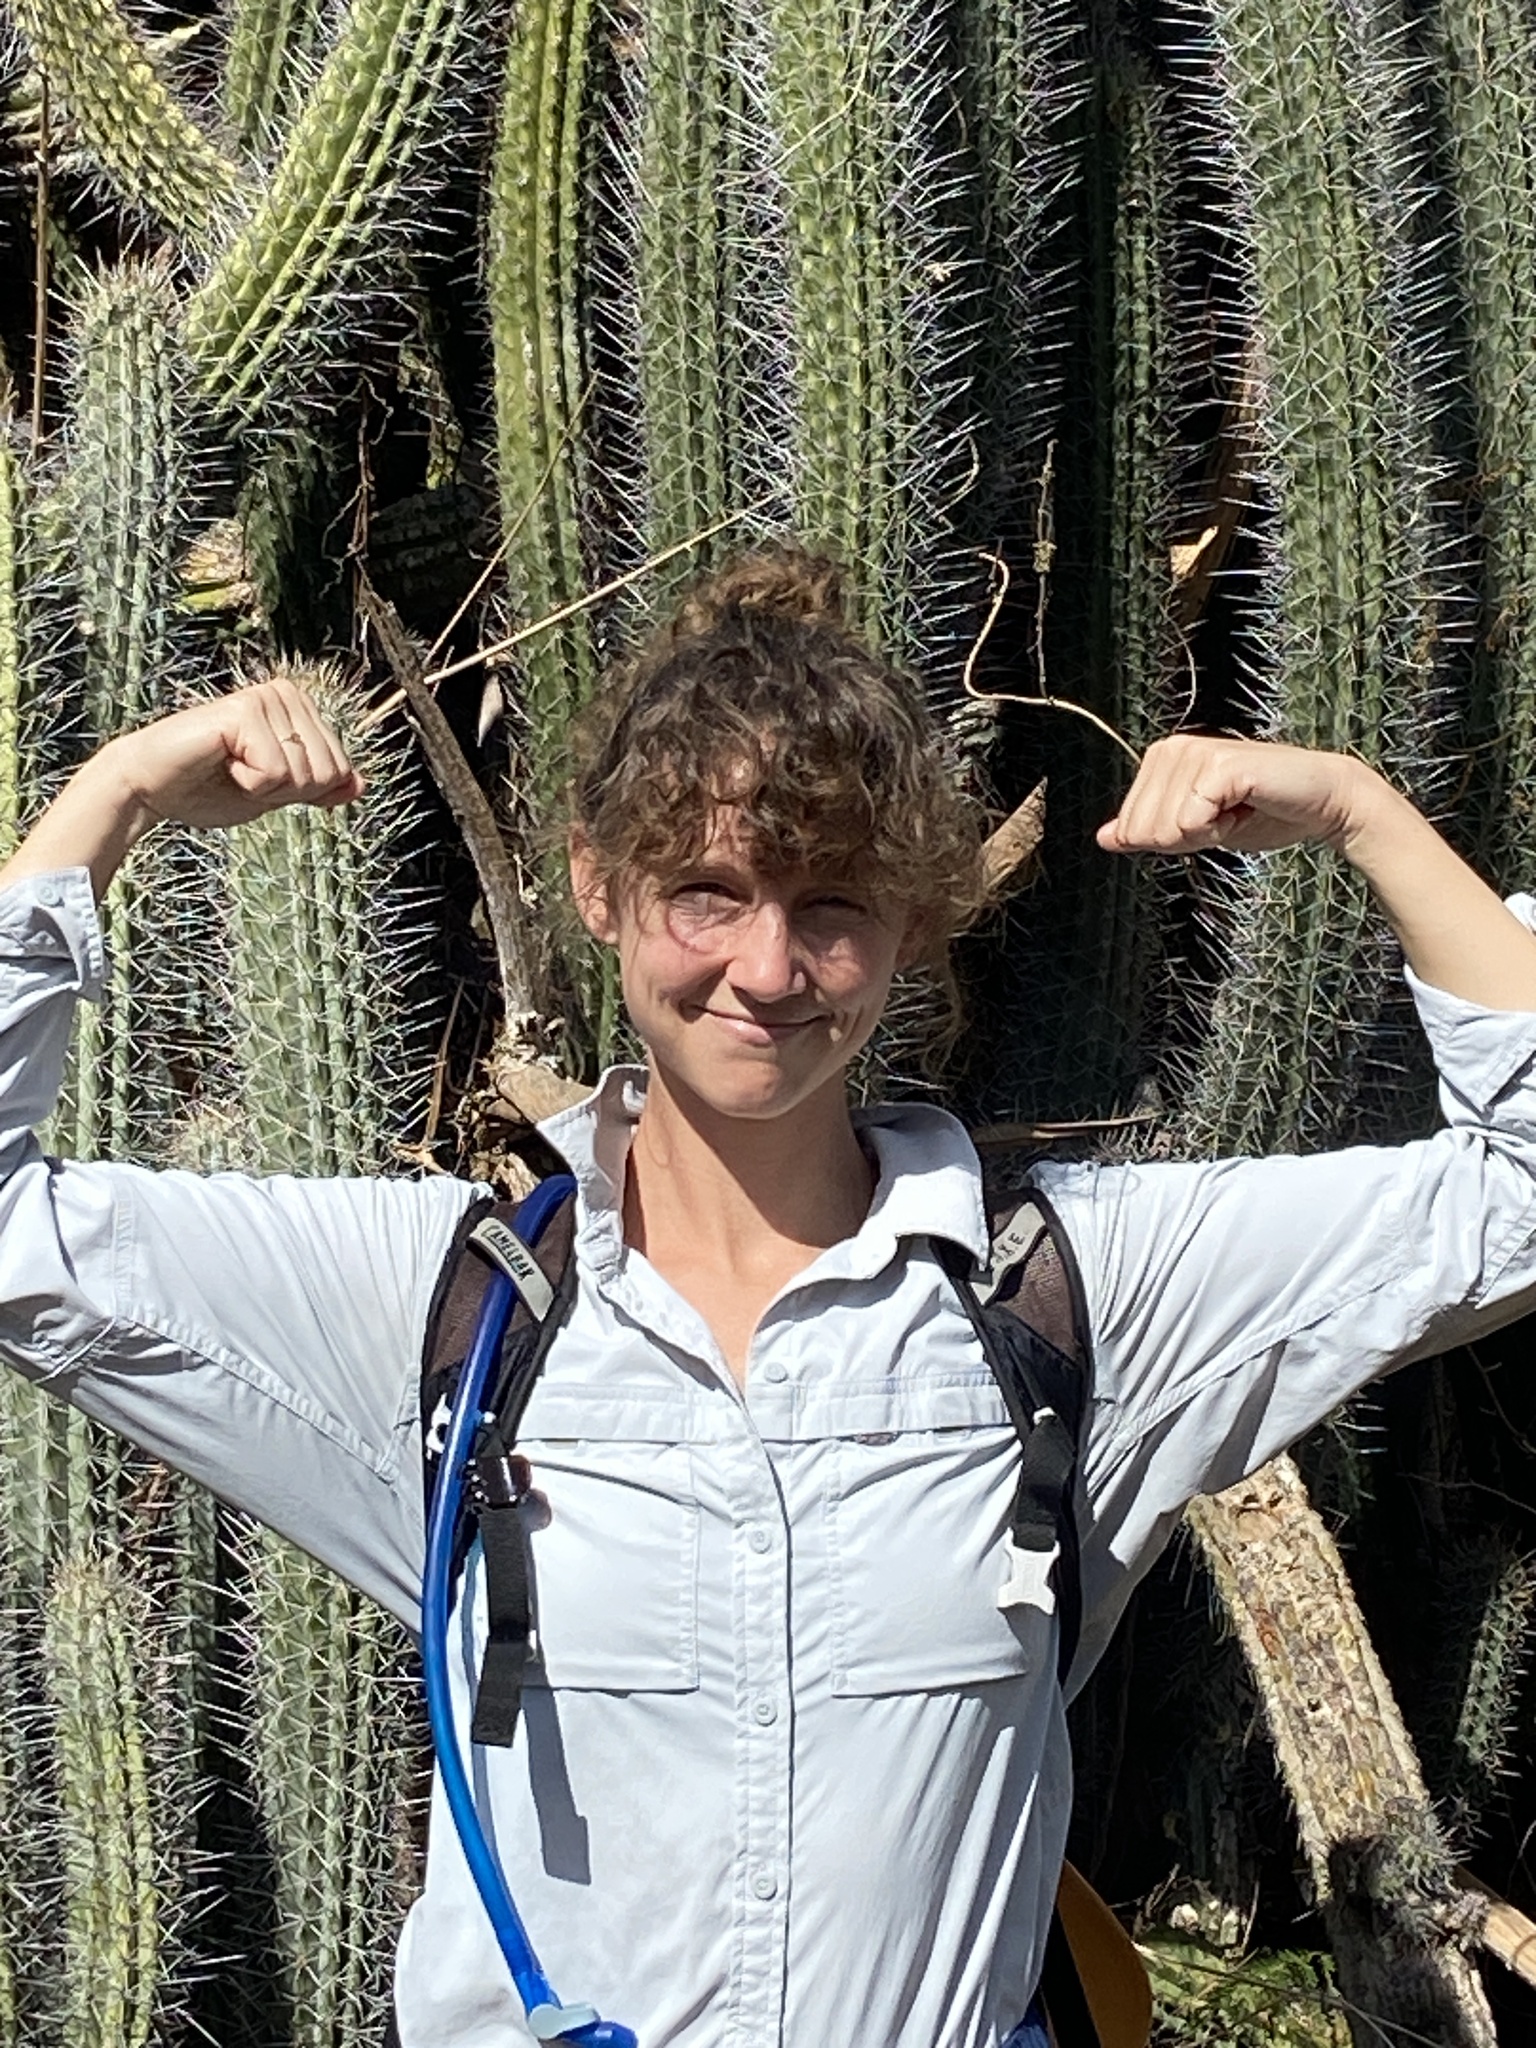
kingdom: Plantae
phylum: Tracheophyta
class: Magnoliopsida
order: Caryophyllales
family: Cactaceae
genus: Stenocereus
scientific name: Stenocereus heptagonus
